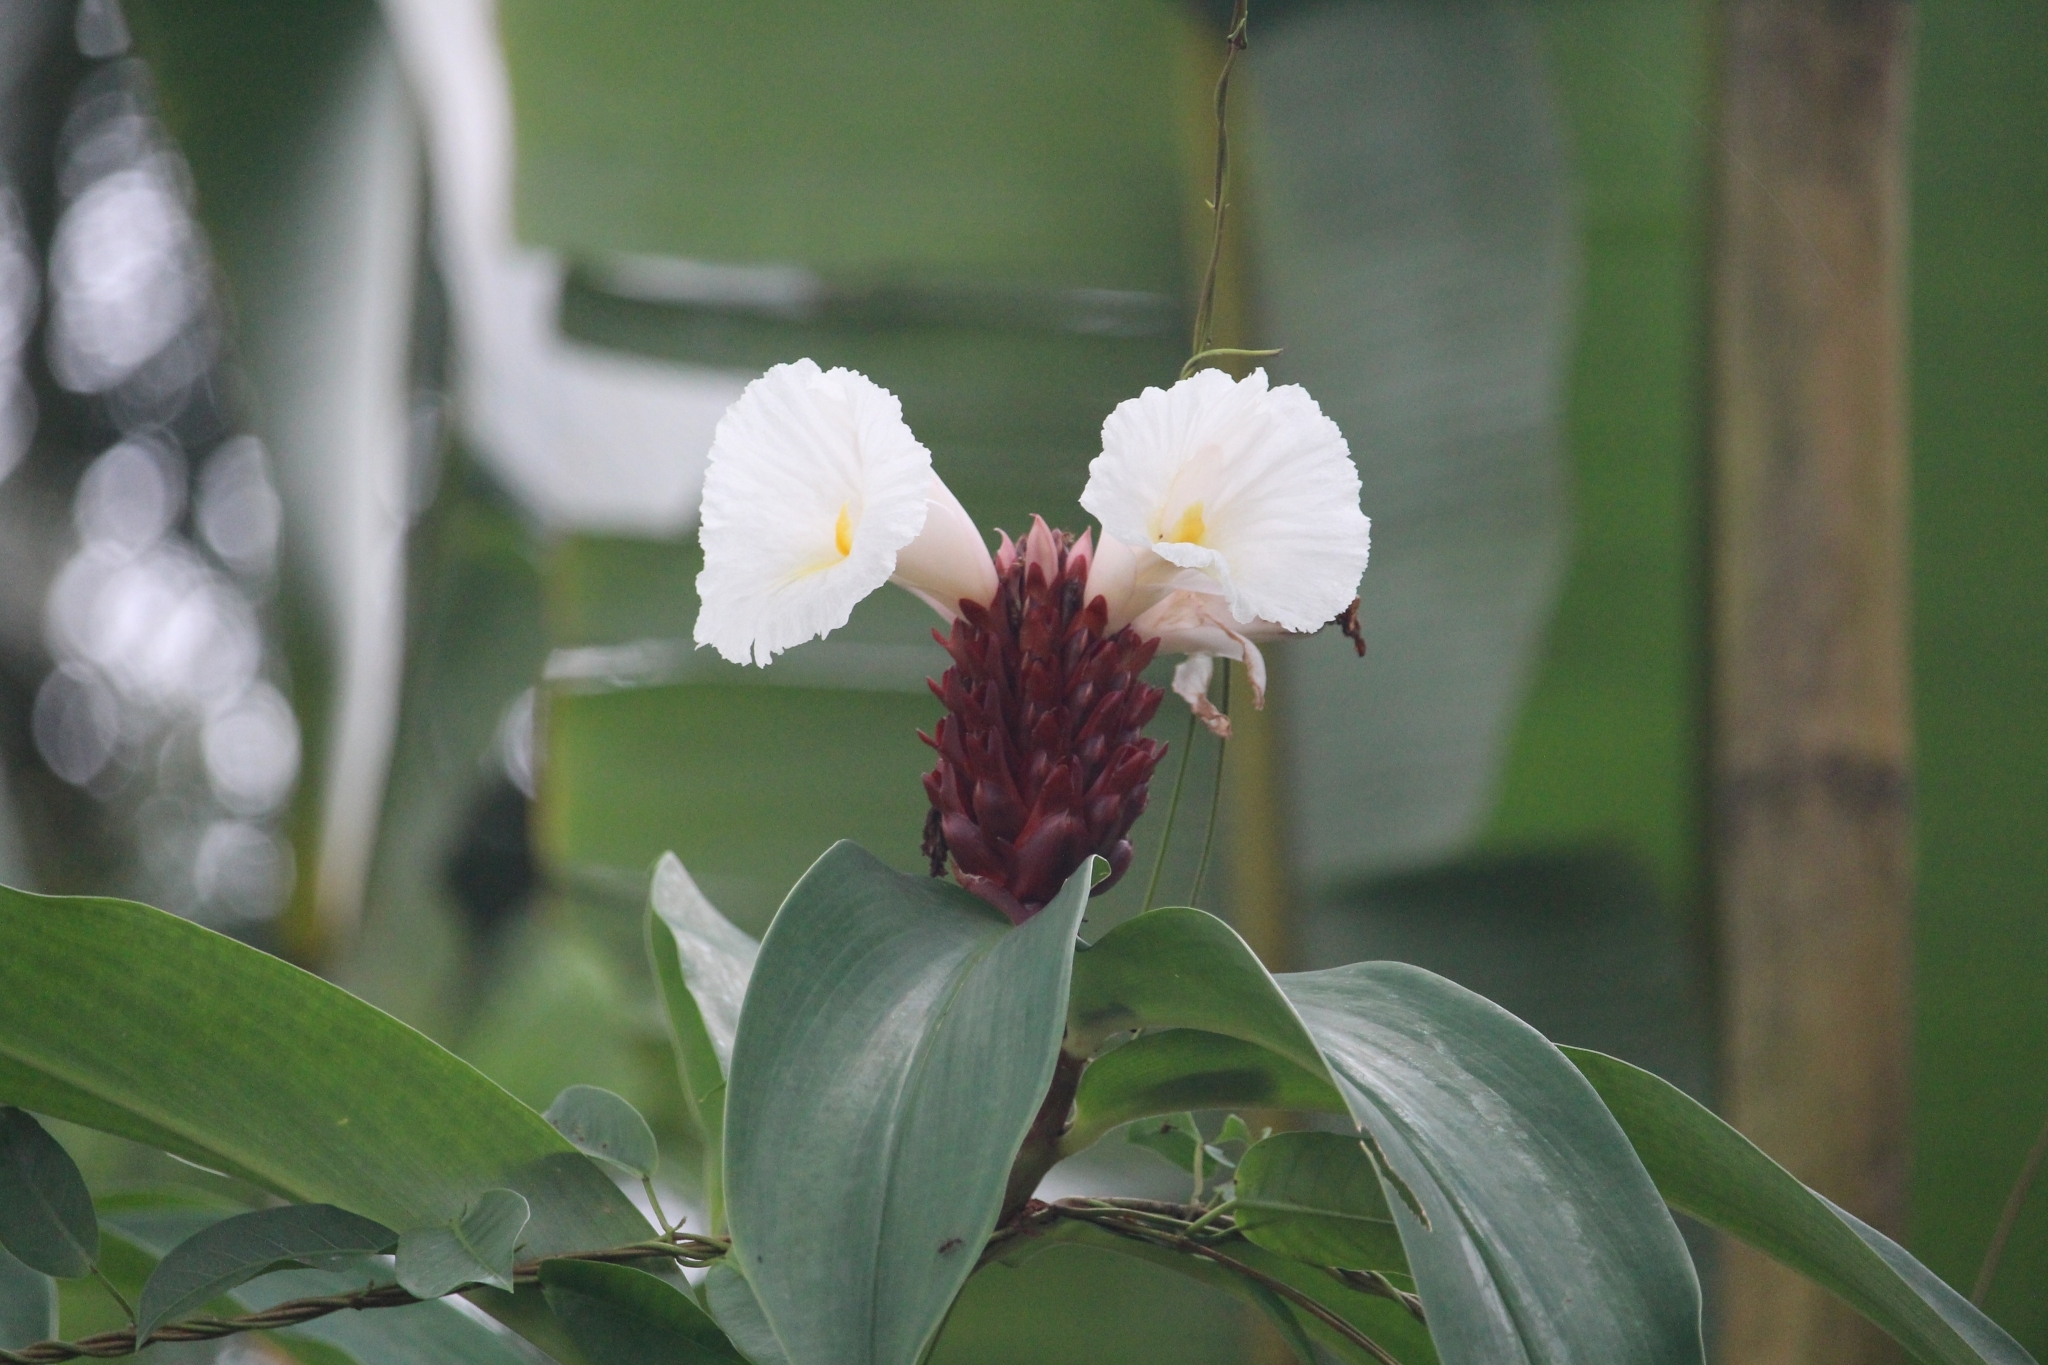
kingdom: Plantae
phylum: Tracheophyta
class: Liliopsida
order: Zingiberales
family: Costaceae
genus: Hellenia
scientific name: Hellenia speciosa
